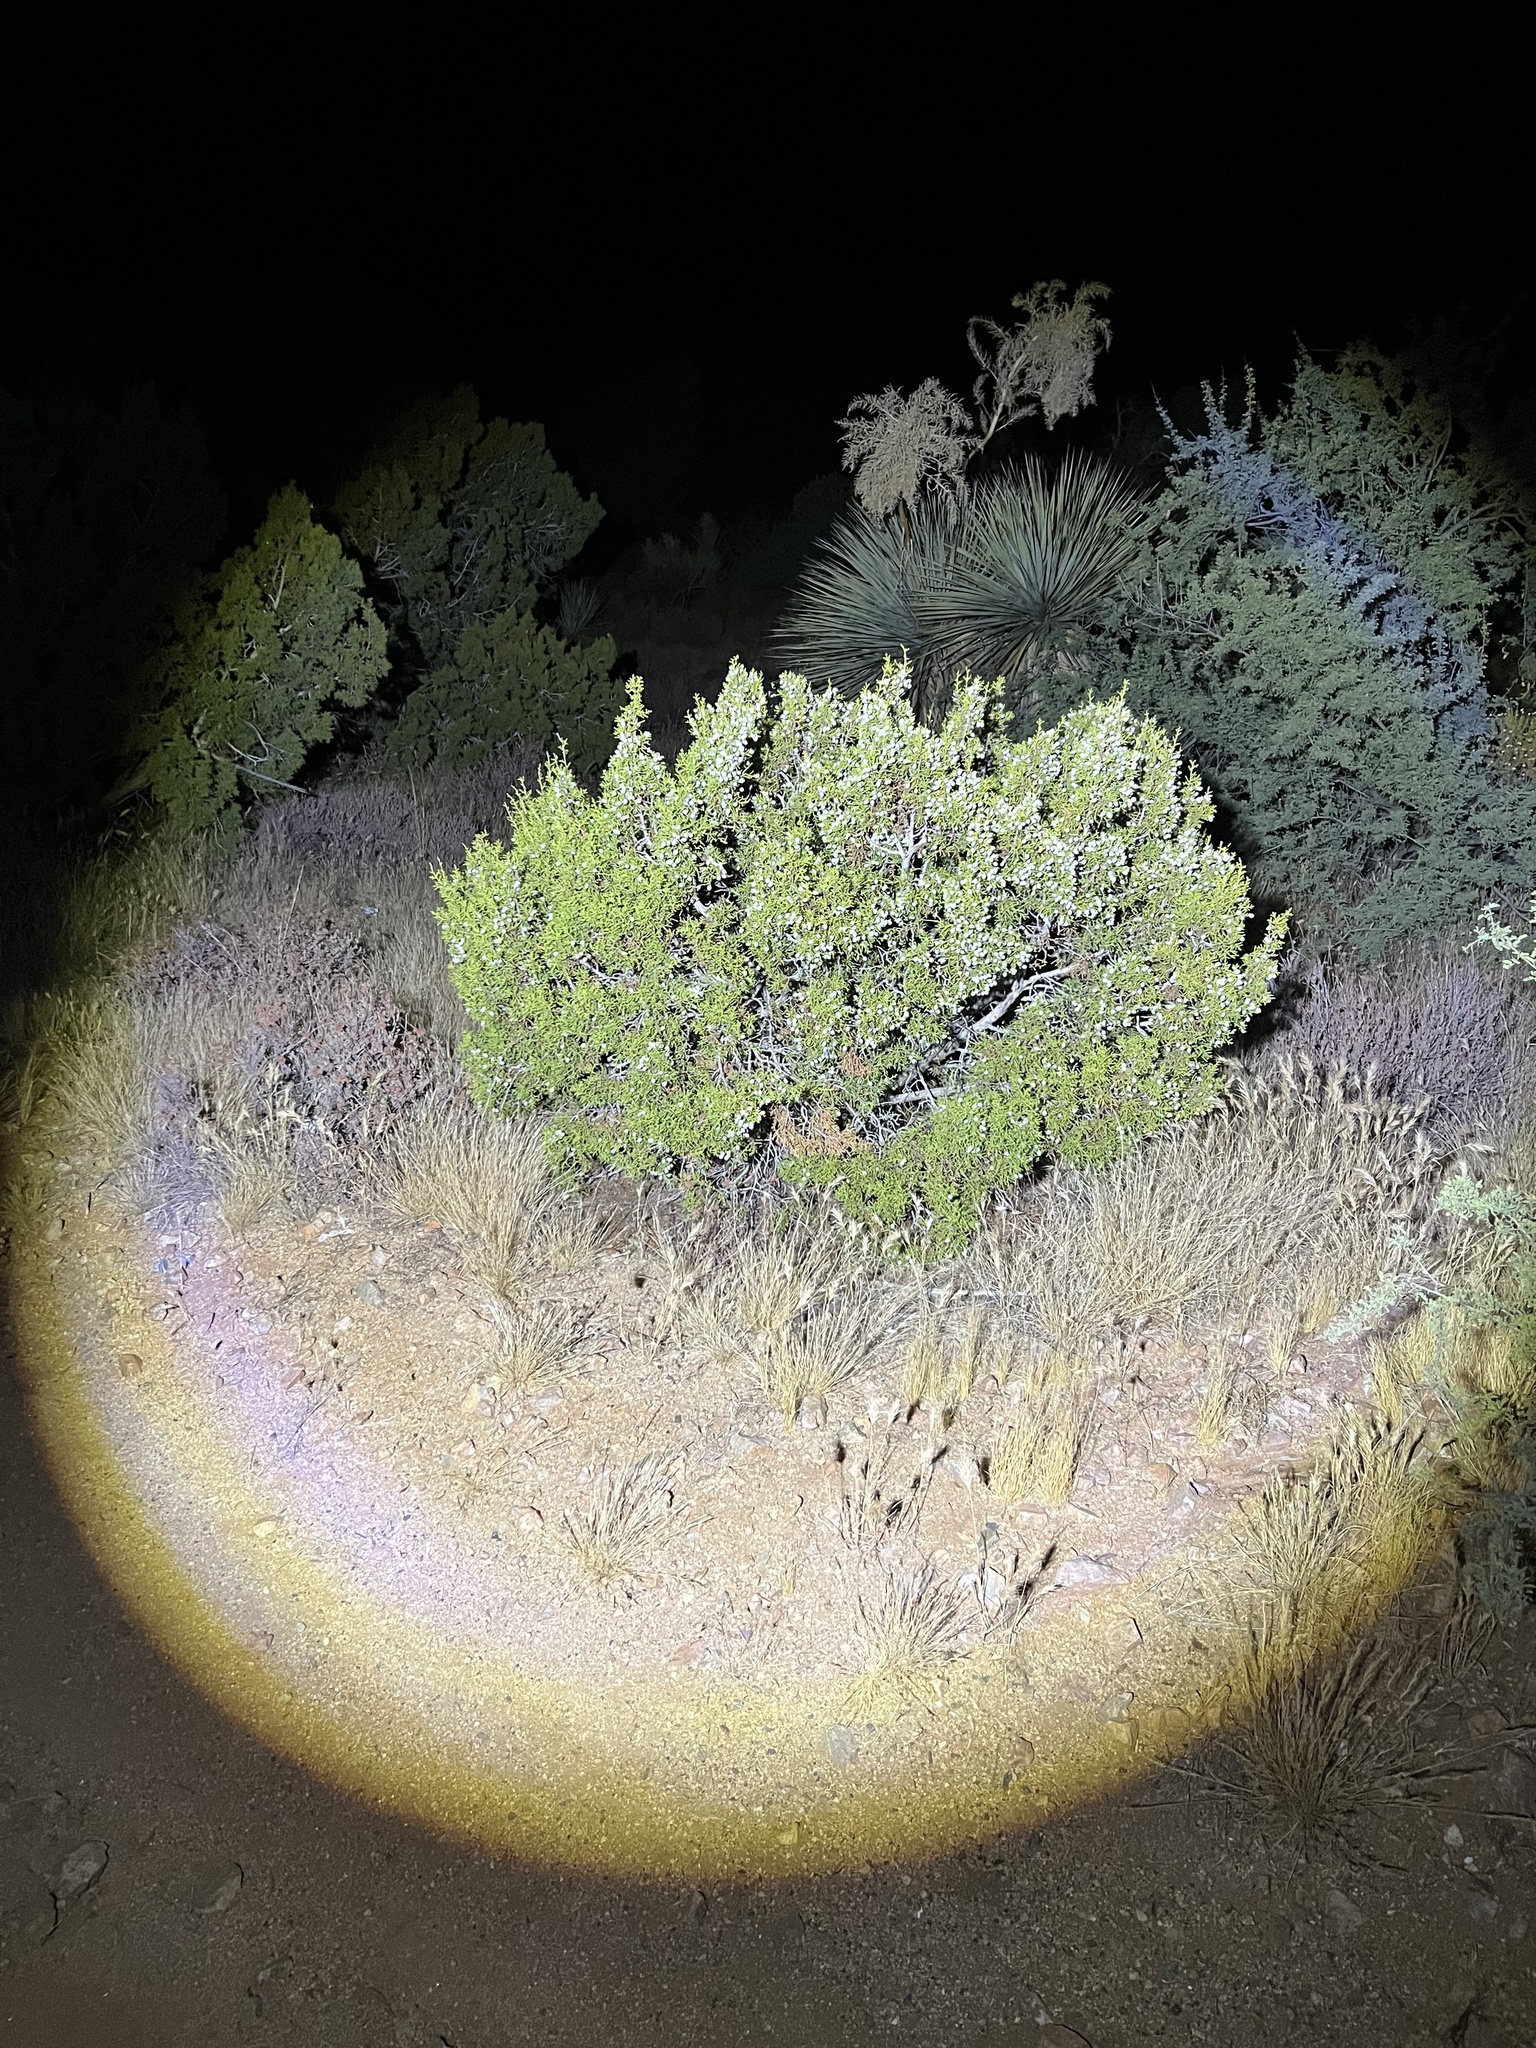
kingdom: Plantae
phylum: Tracheophyta
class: Pinopsida
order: Pinales
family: Cupressaceae
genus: Juniperus
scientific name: Juniperus californica
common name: California juniper
